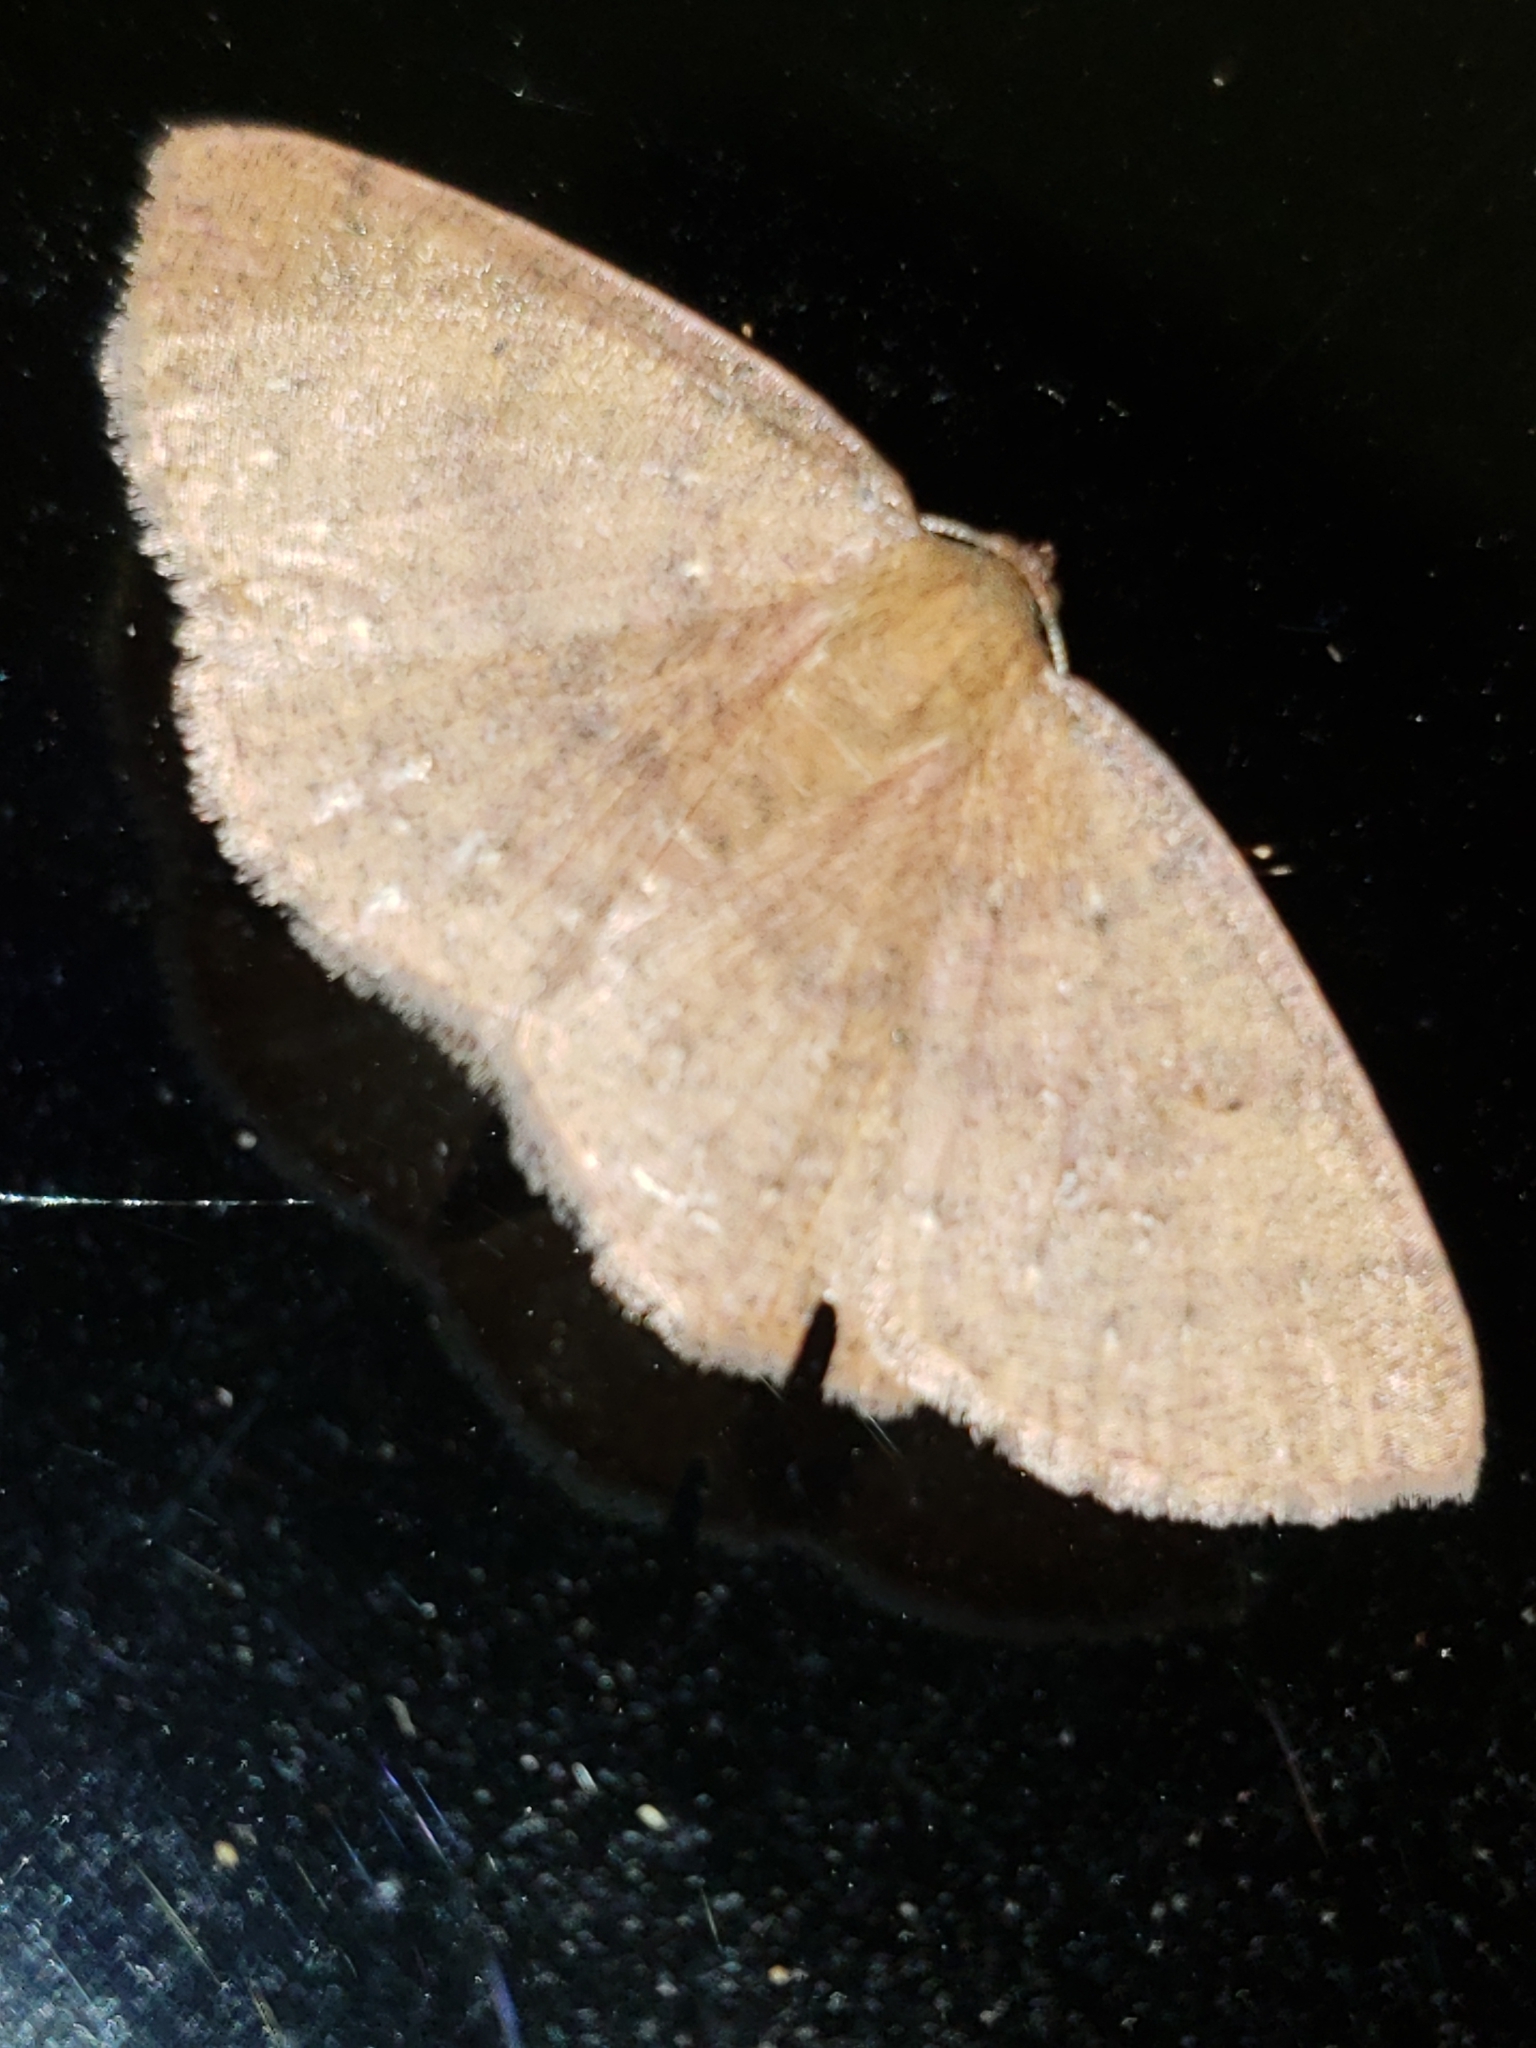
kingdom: Animalia
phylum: Arthropoda
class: Insecta
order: Lepidoptera
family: Geometridae
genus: Ilexia
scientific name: Ilexia intractata
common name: Black-dotted ruddy moth
